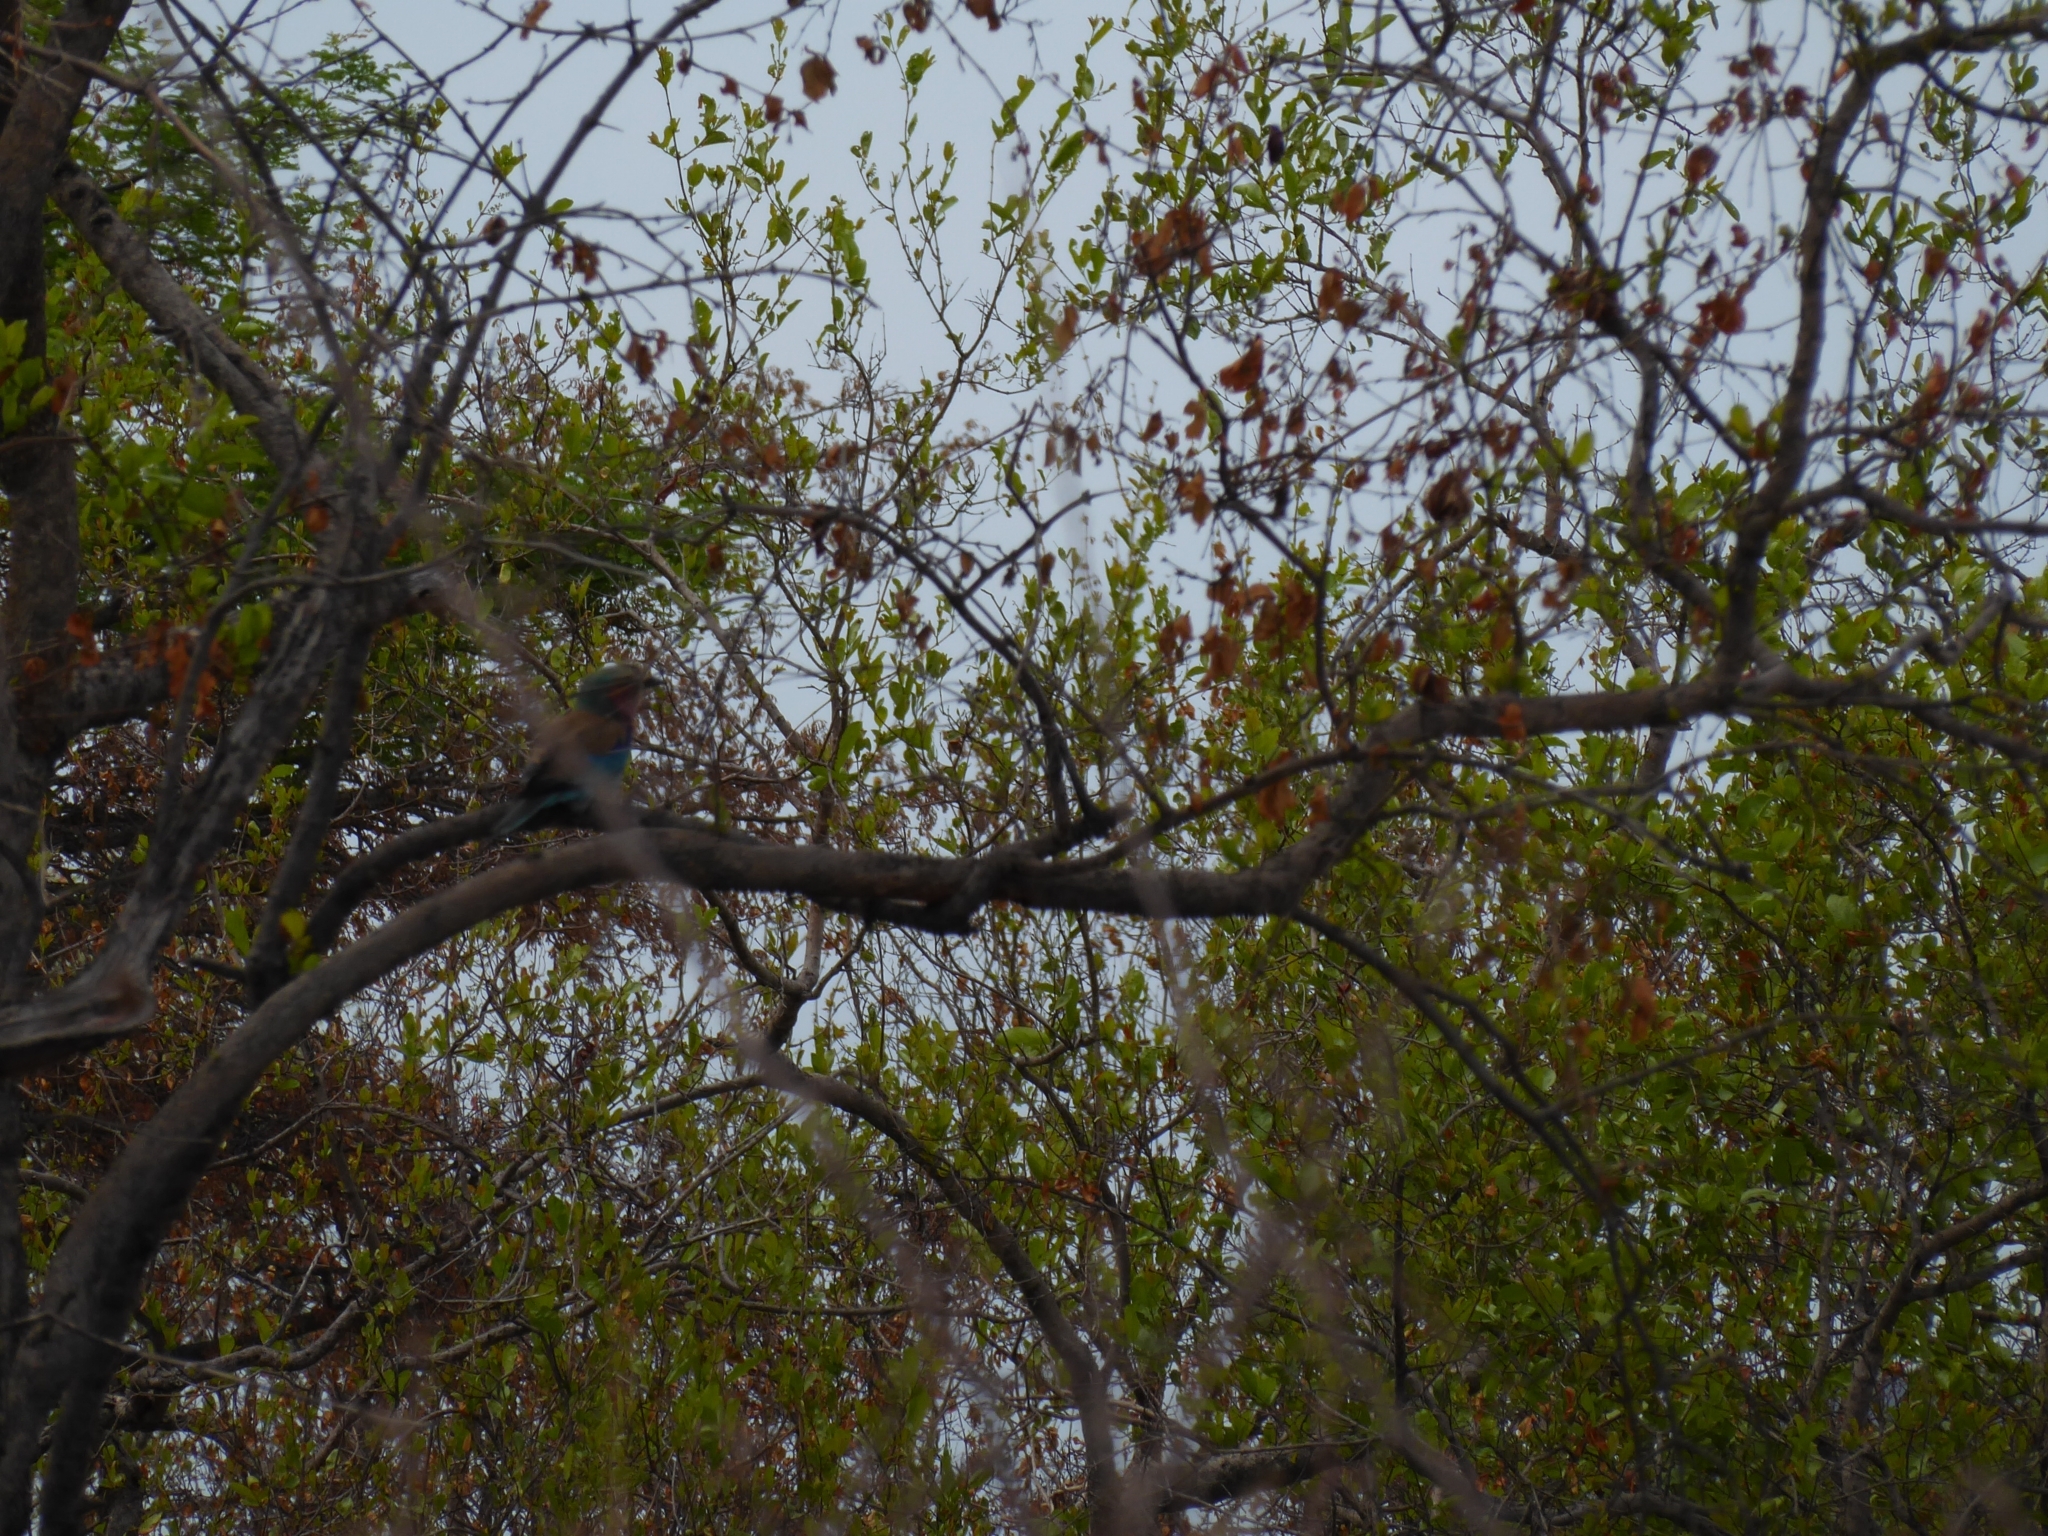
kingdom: Animalia
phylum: Chordata
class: Aves
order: Coraciiformes
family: Coraciidae
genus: Coracias
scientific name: Coracias caudatus
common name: Lilac-breasted roller
